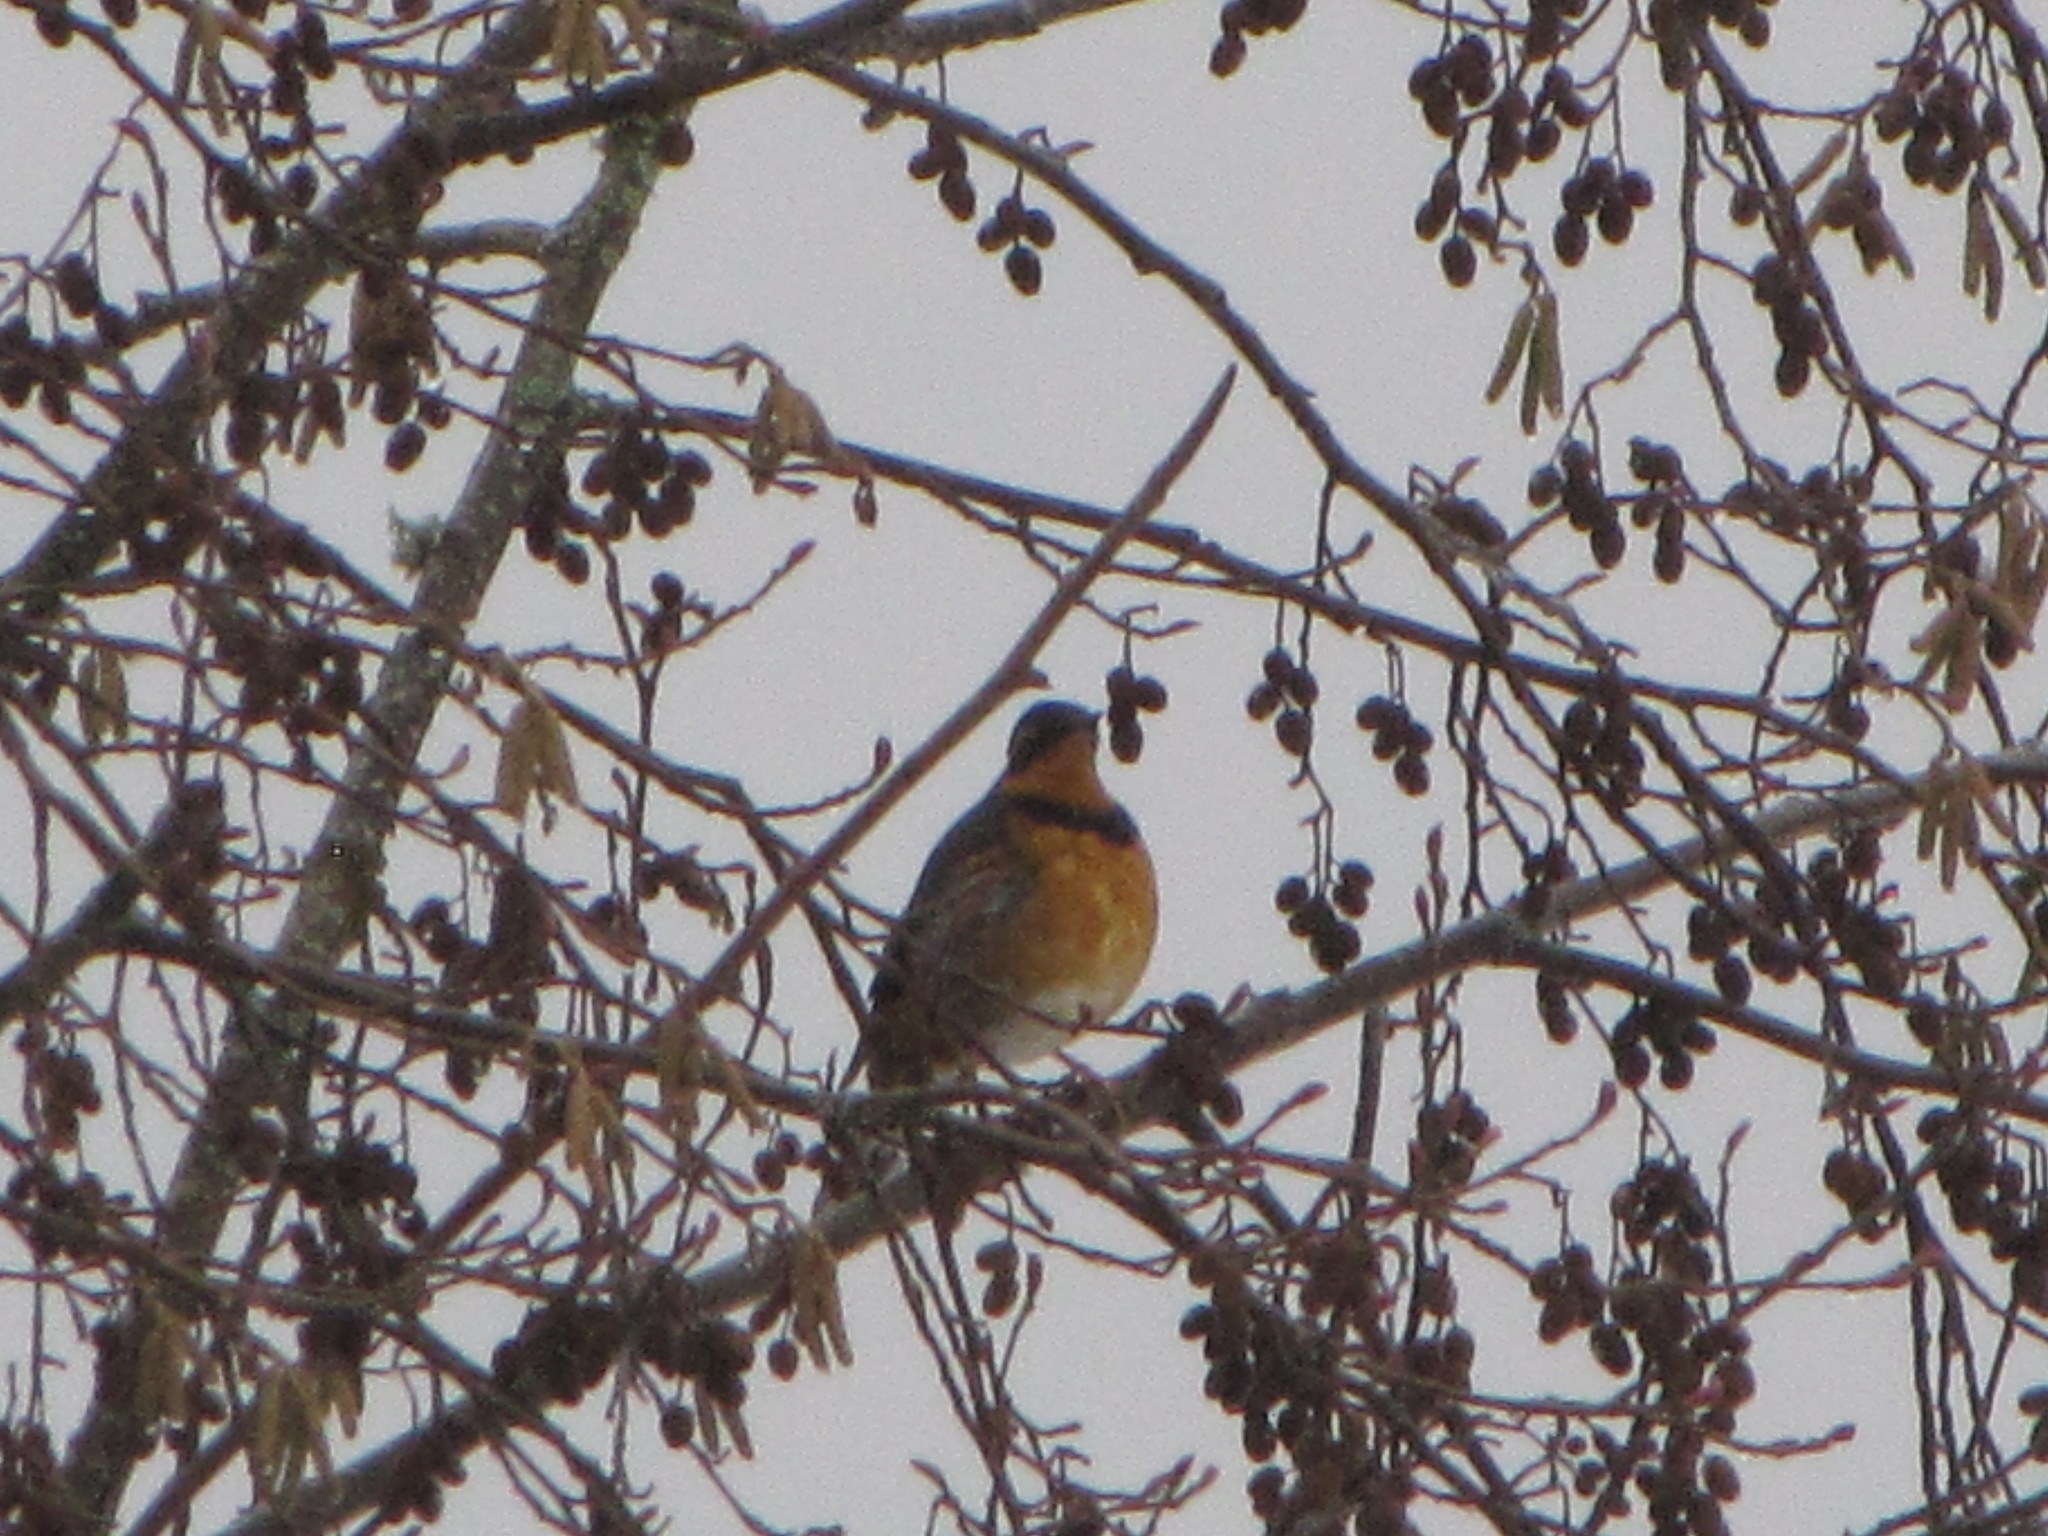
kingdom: Animalia
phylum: Chordata
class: Aves
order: Passeriformes
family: Turdidae
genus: Ixoreus
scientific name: Ixoreus naevius
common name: Varied thrush
